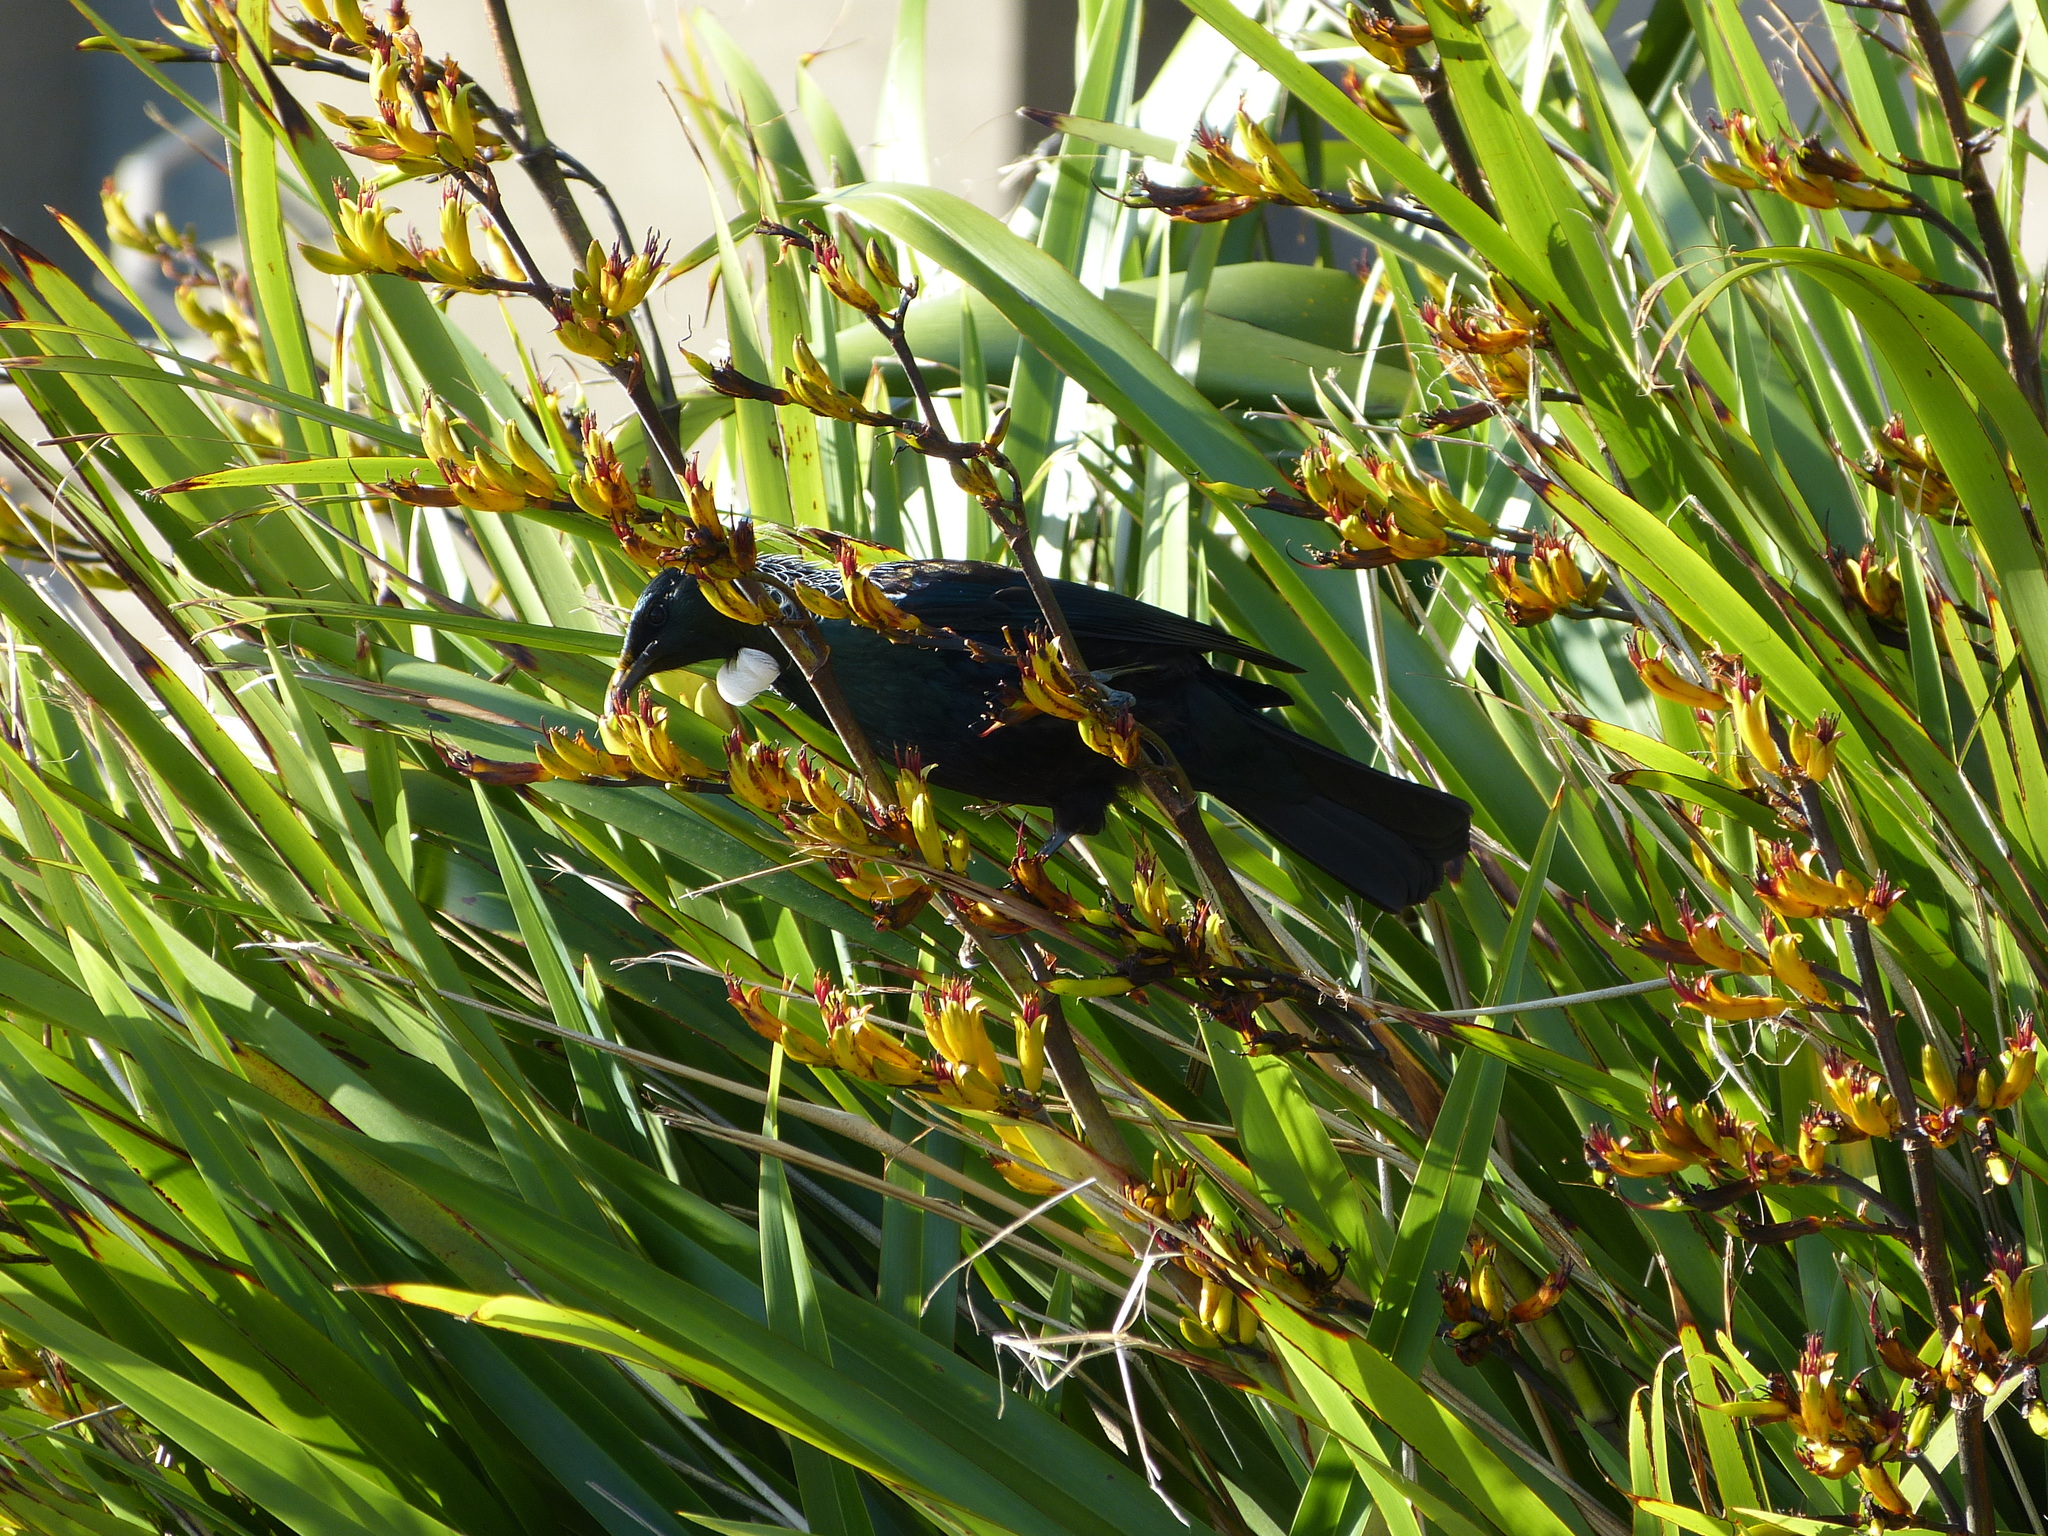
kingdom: Animalia
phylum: Chordata
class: Aves
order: Passeriformes
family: Meliphagidae
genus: Prosthemadera
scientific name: Prosthemadera novaeseelandiae
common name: Tui
